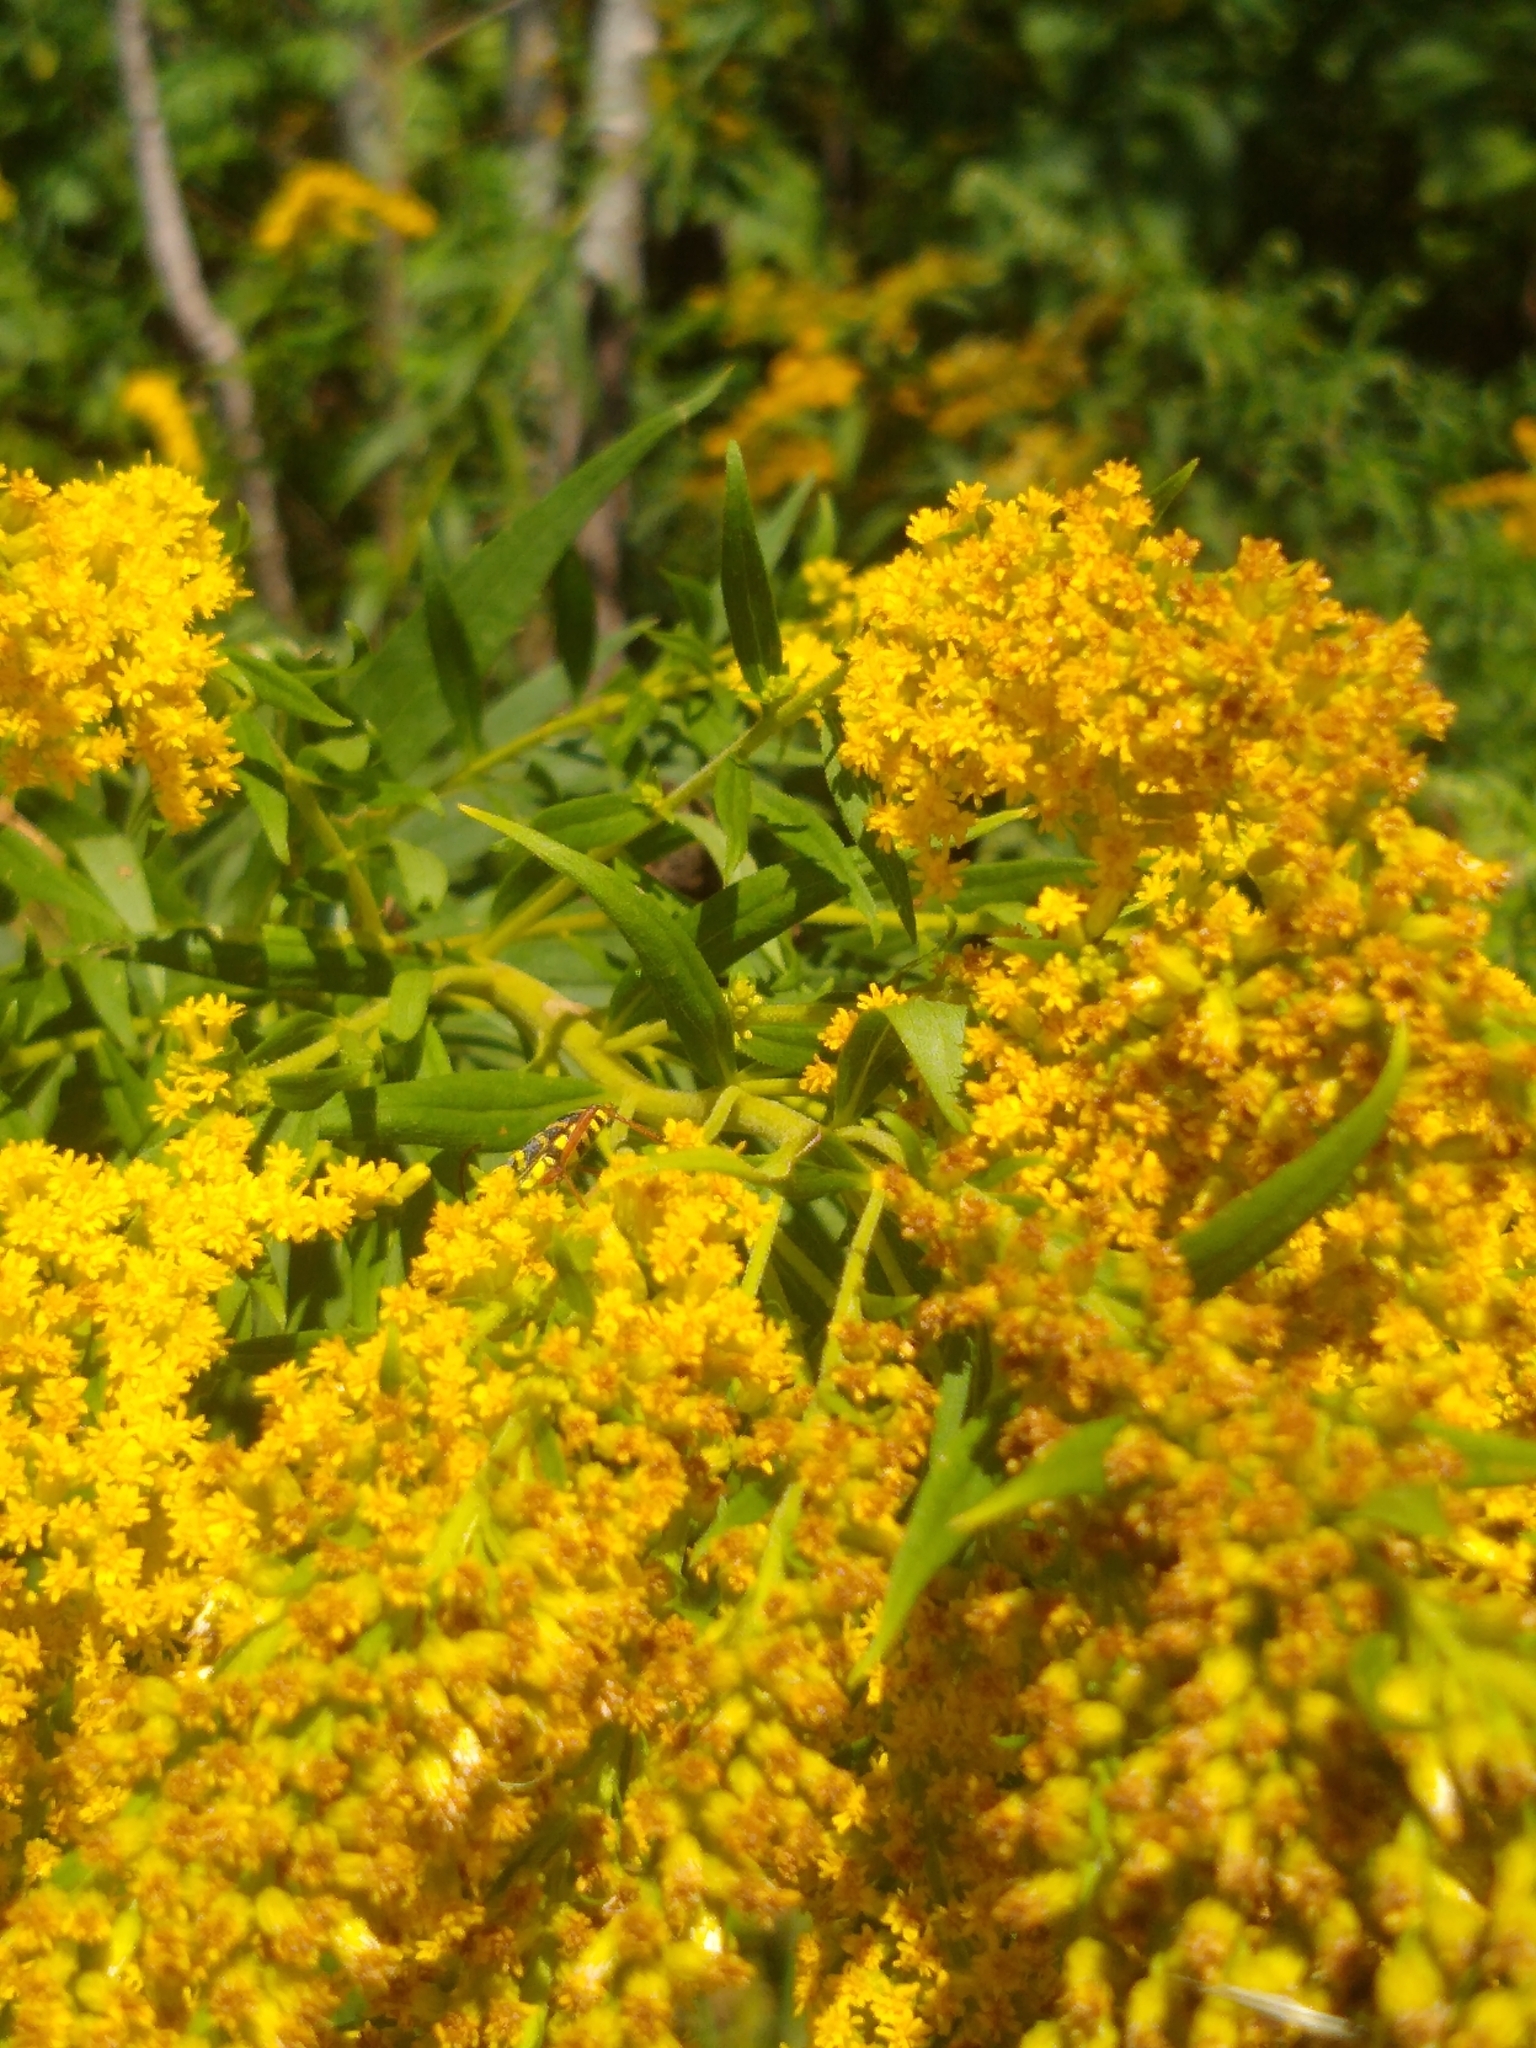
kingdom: Animalia
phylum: Arthropoda
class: Insecta
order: Coleoptera
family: Cerambycidae
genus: Megacyllene
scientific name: Megacyllene robiniae
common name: Locust borer
